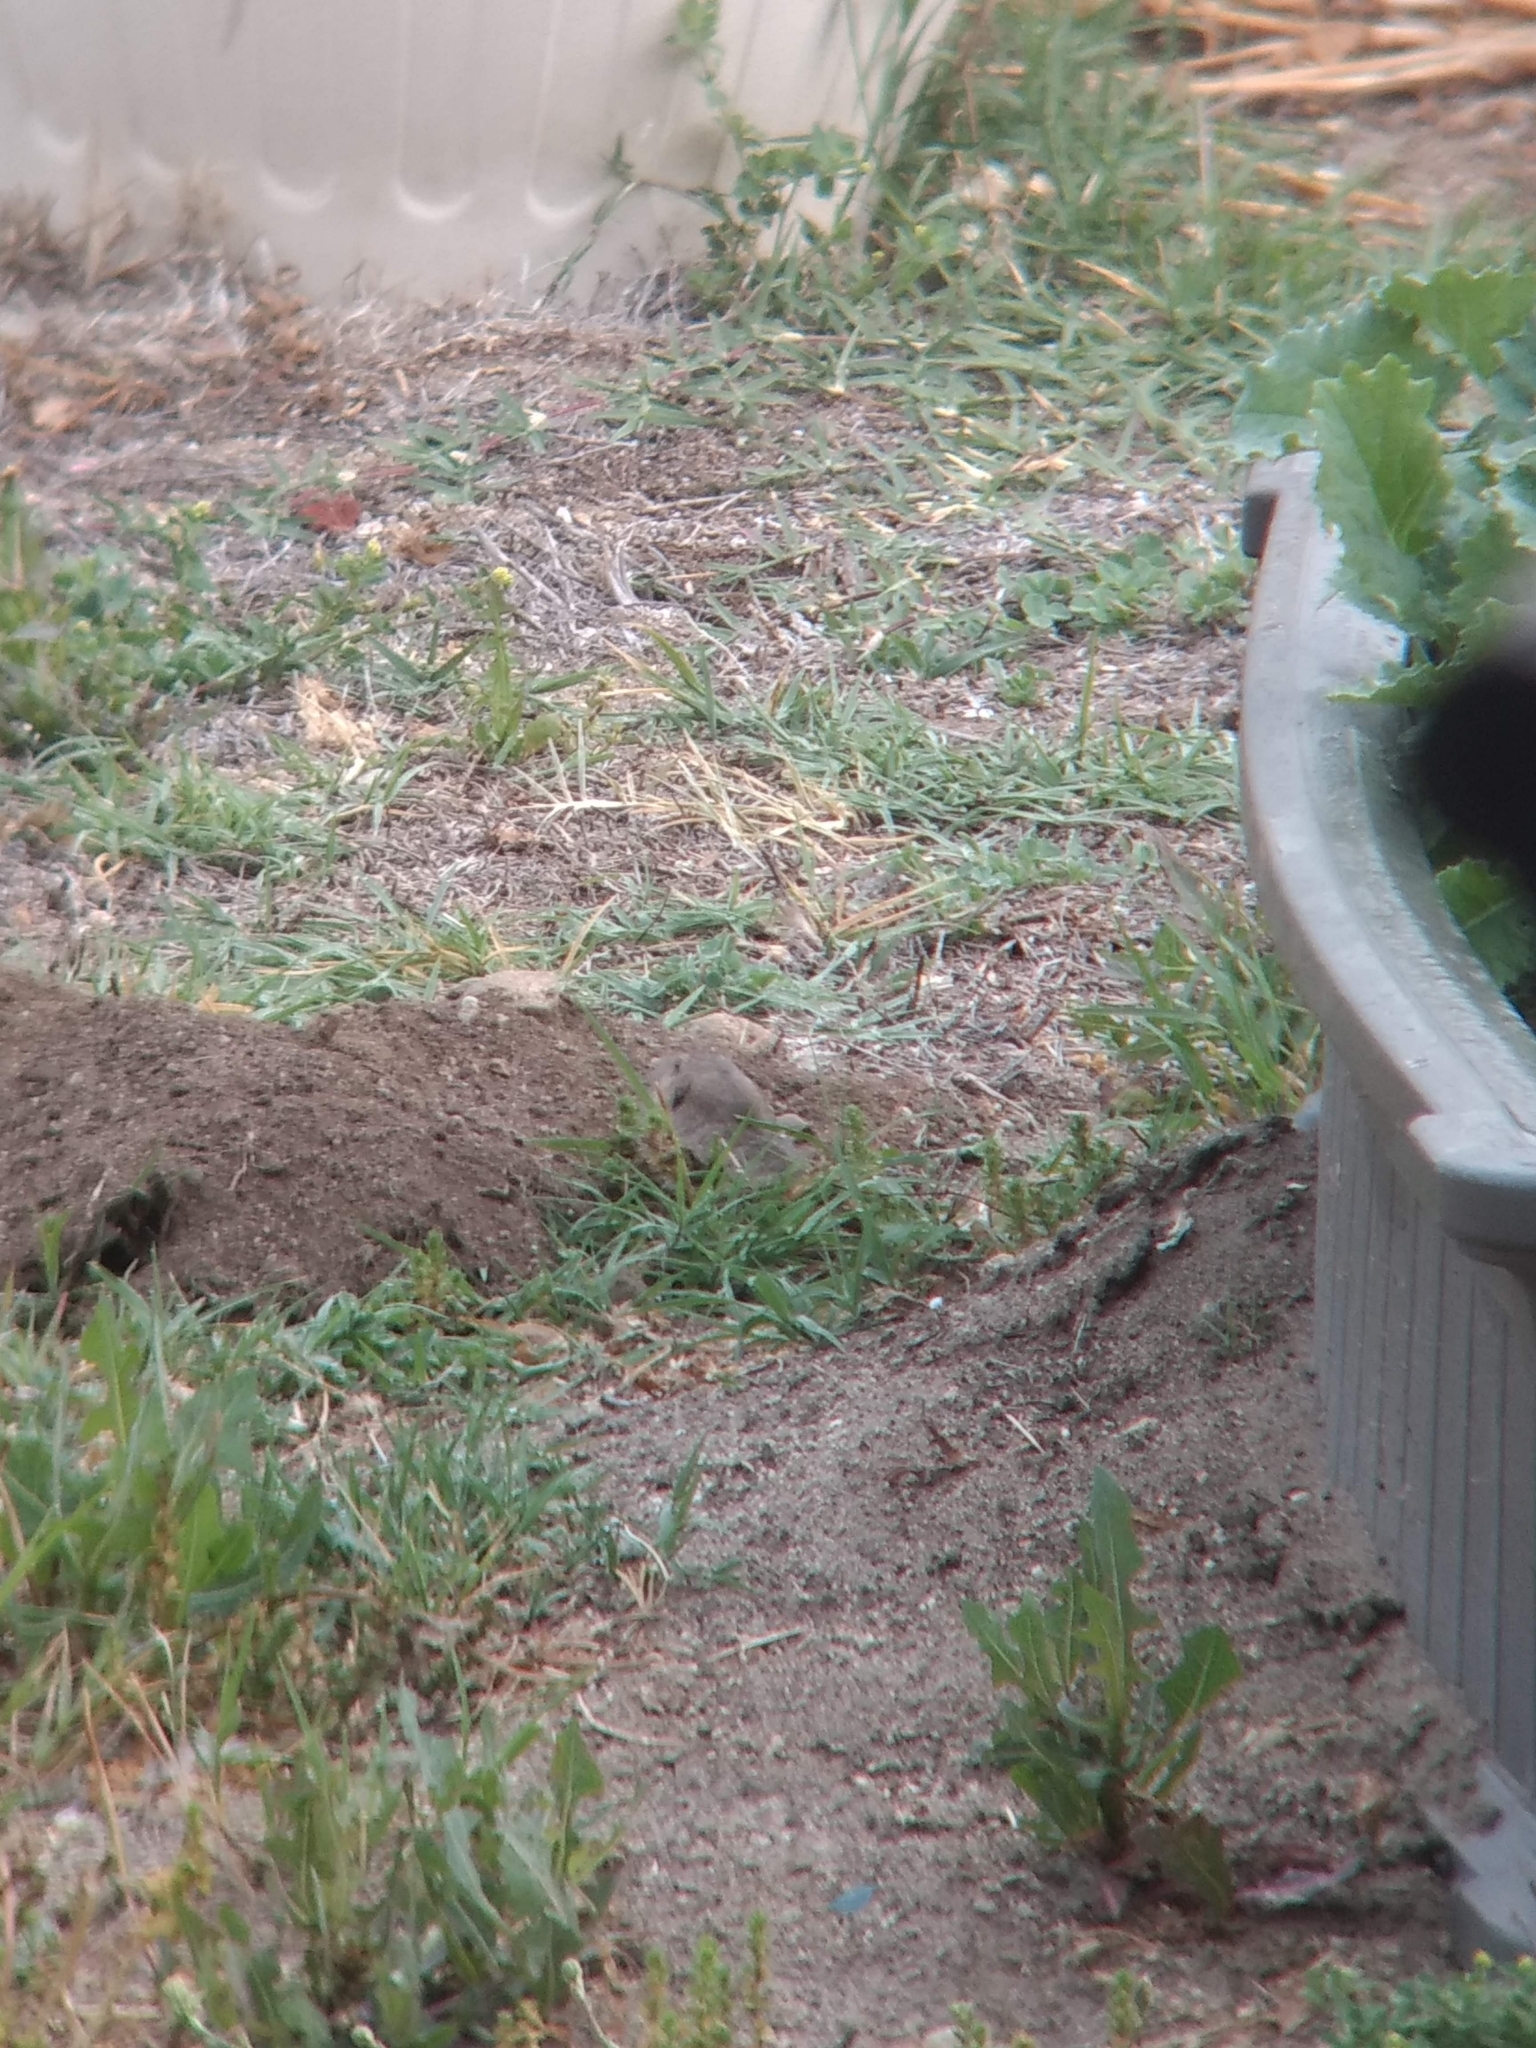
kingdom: Animalia
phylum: Chordata
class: Mammalia
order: Rodentia
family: Geomyidae
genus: Thomomys
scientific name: Thomomys bottae
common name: Botta's pocket gopher
